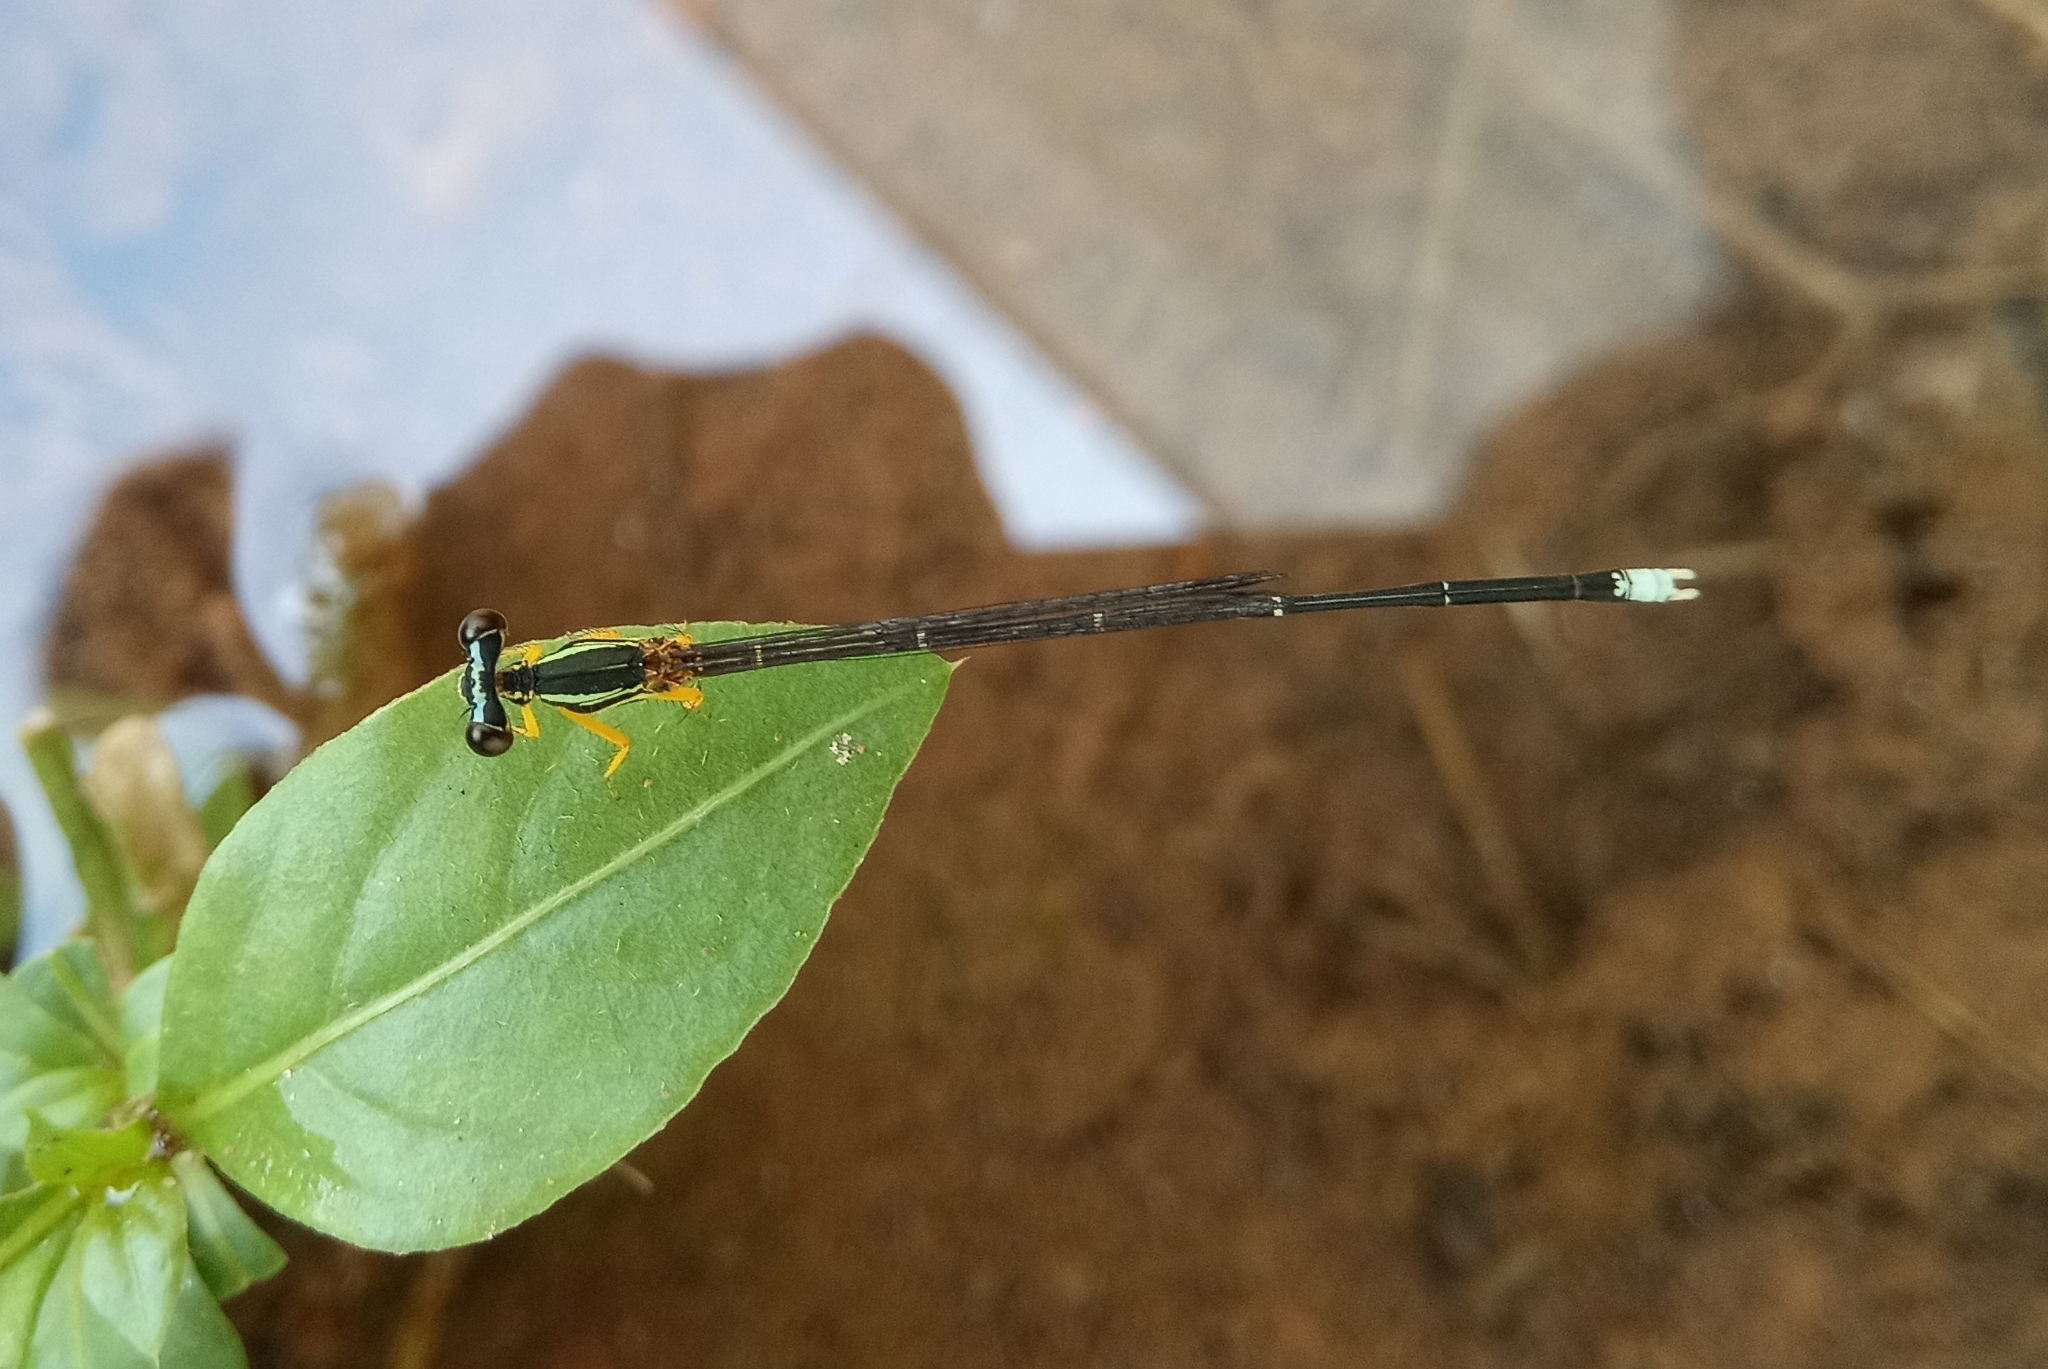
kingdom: Animalia
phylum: Arthropoda
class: Insecta
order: Odonata
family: Platycnemididae
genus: Copera
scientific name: Copera marginipes
